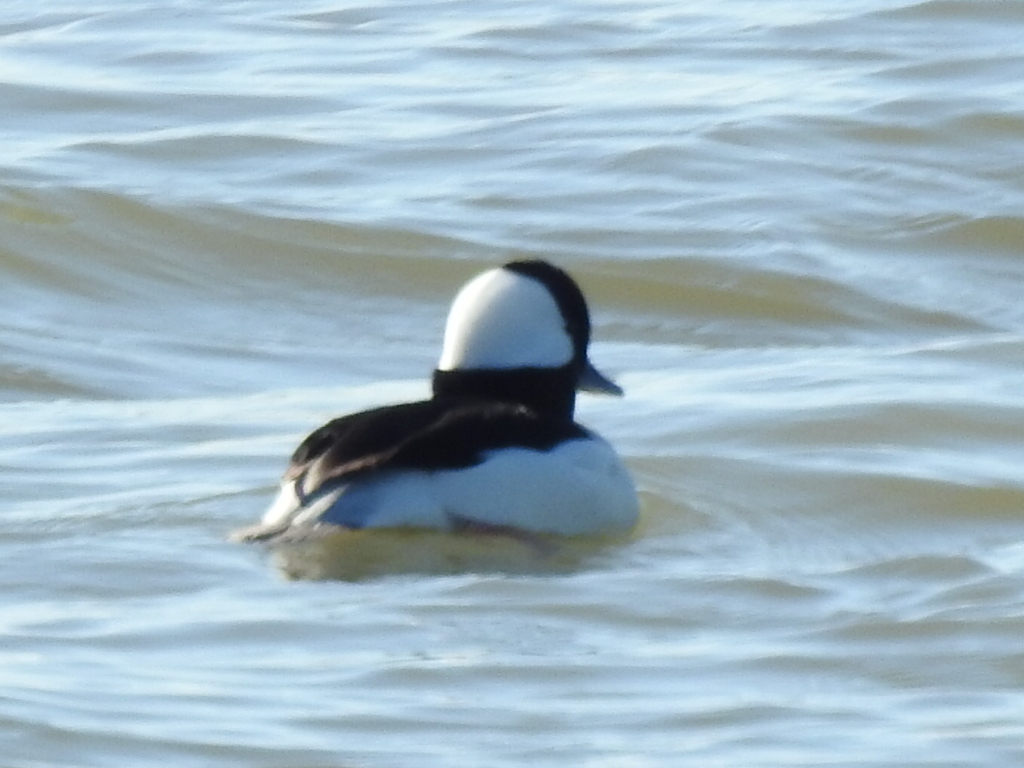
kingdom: Animalia
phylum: Chordata
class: Aves
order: Anseriformes
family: Anatidae
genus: Bucephala
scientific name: Bucephala albeola
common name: Bufflehead
